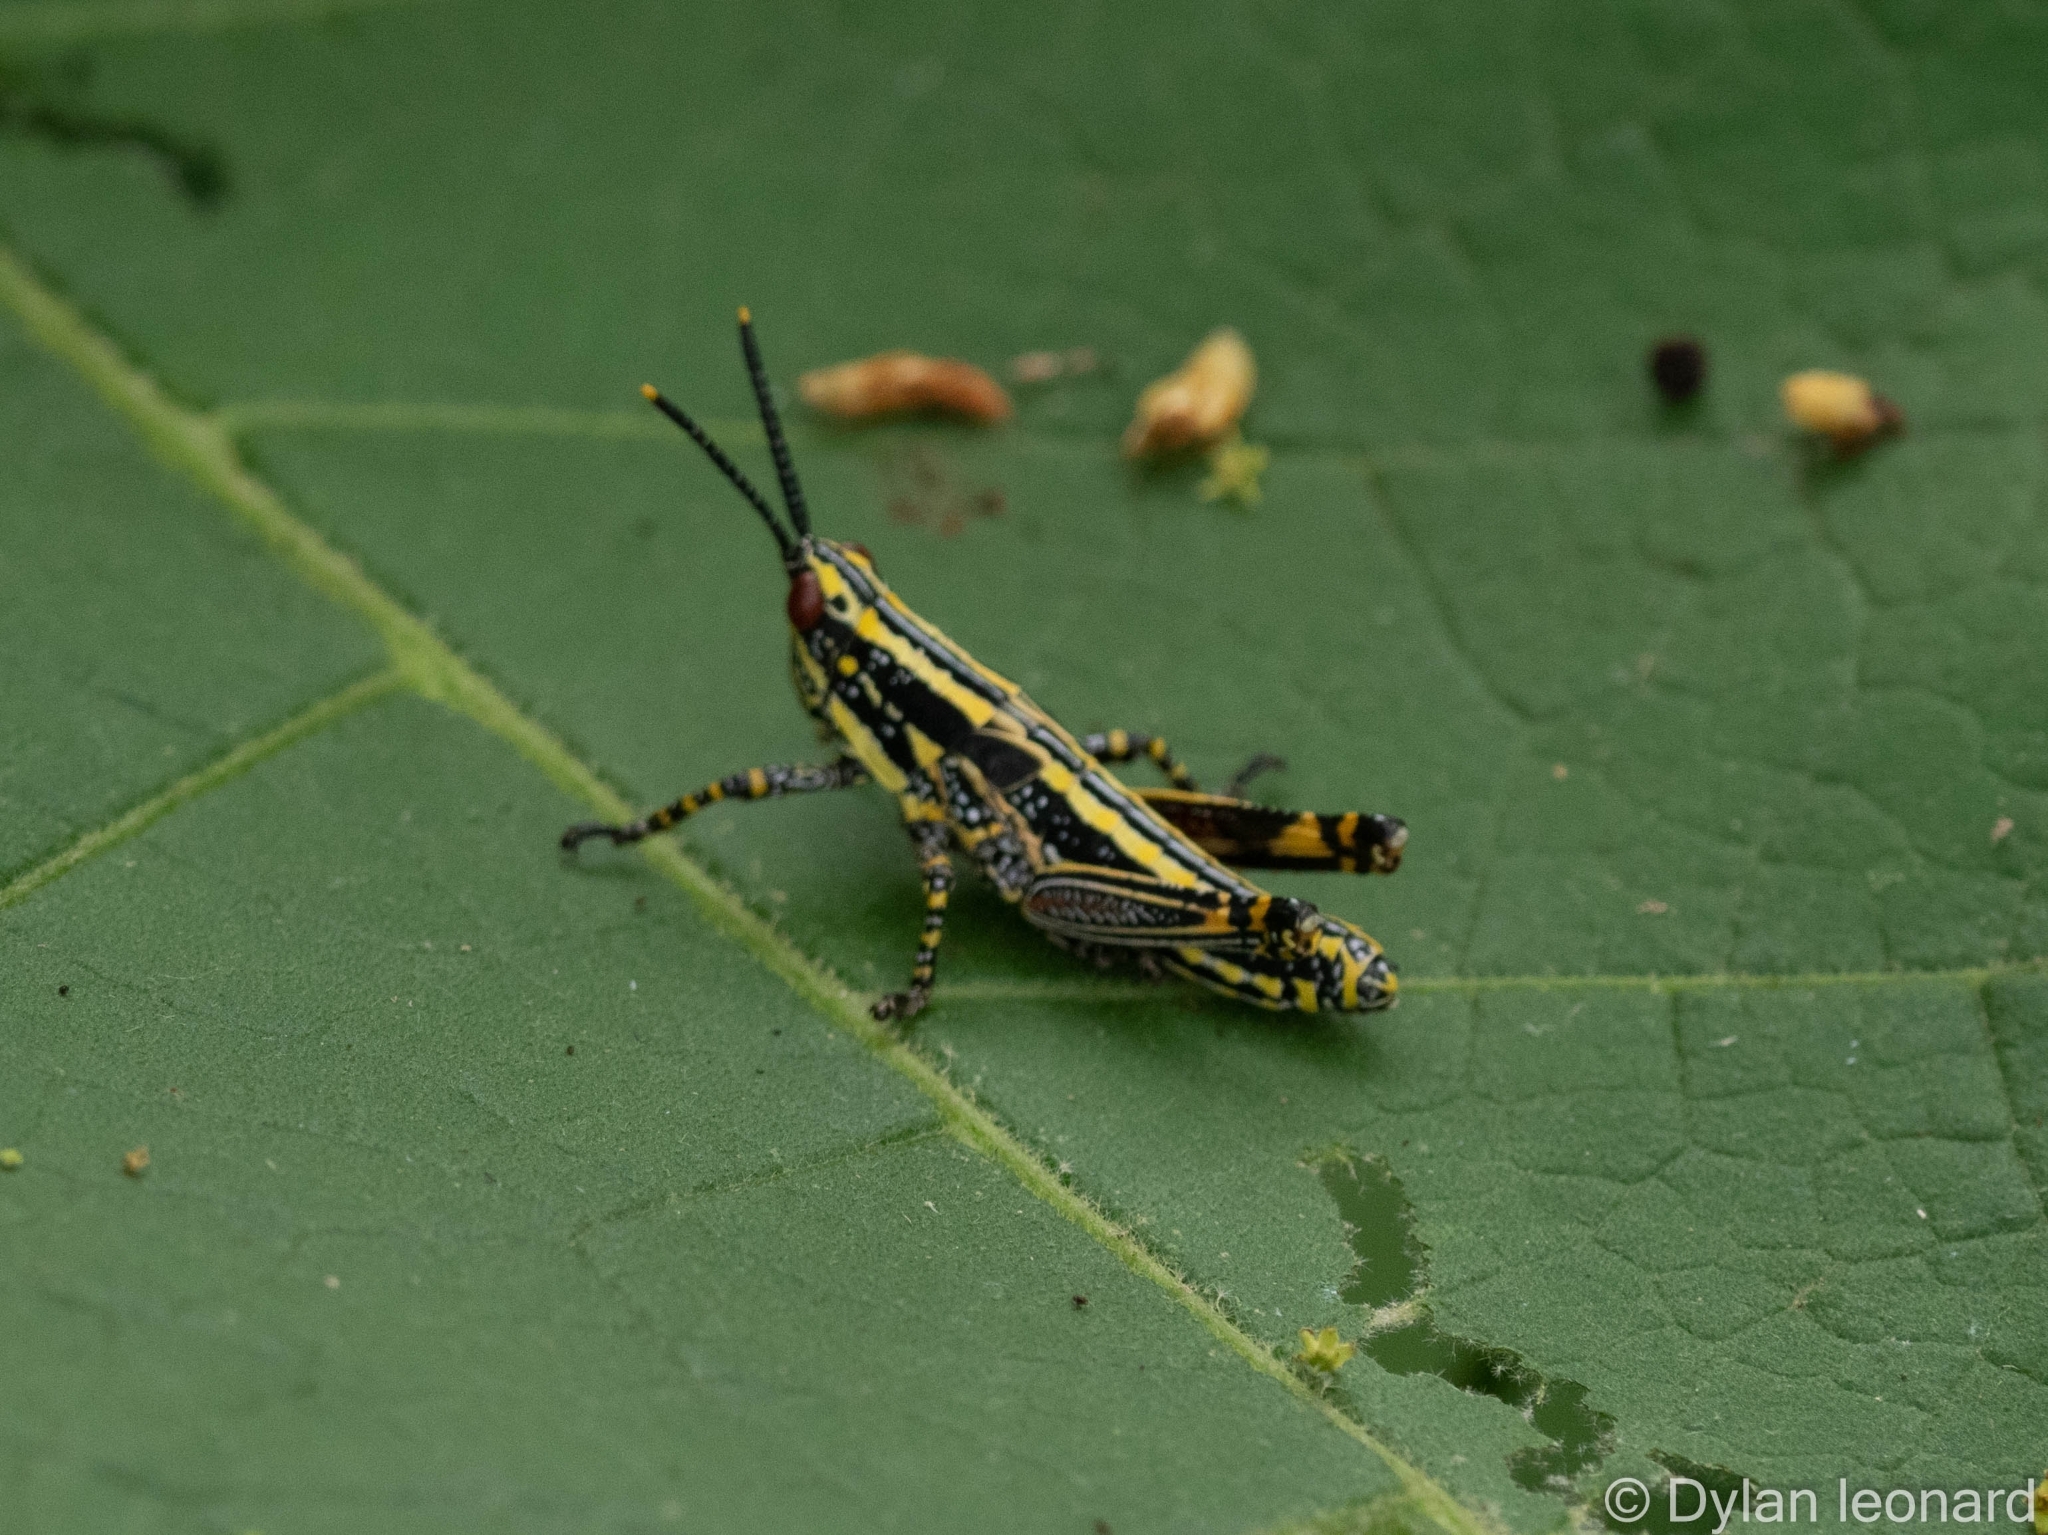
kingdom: Animalia
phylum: Arthropoda
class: Insecta
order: Orthoptera
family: Pyrgomorphidae
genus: Zonocerus
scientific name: Zonocerus elegans
